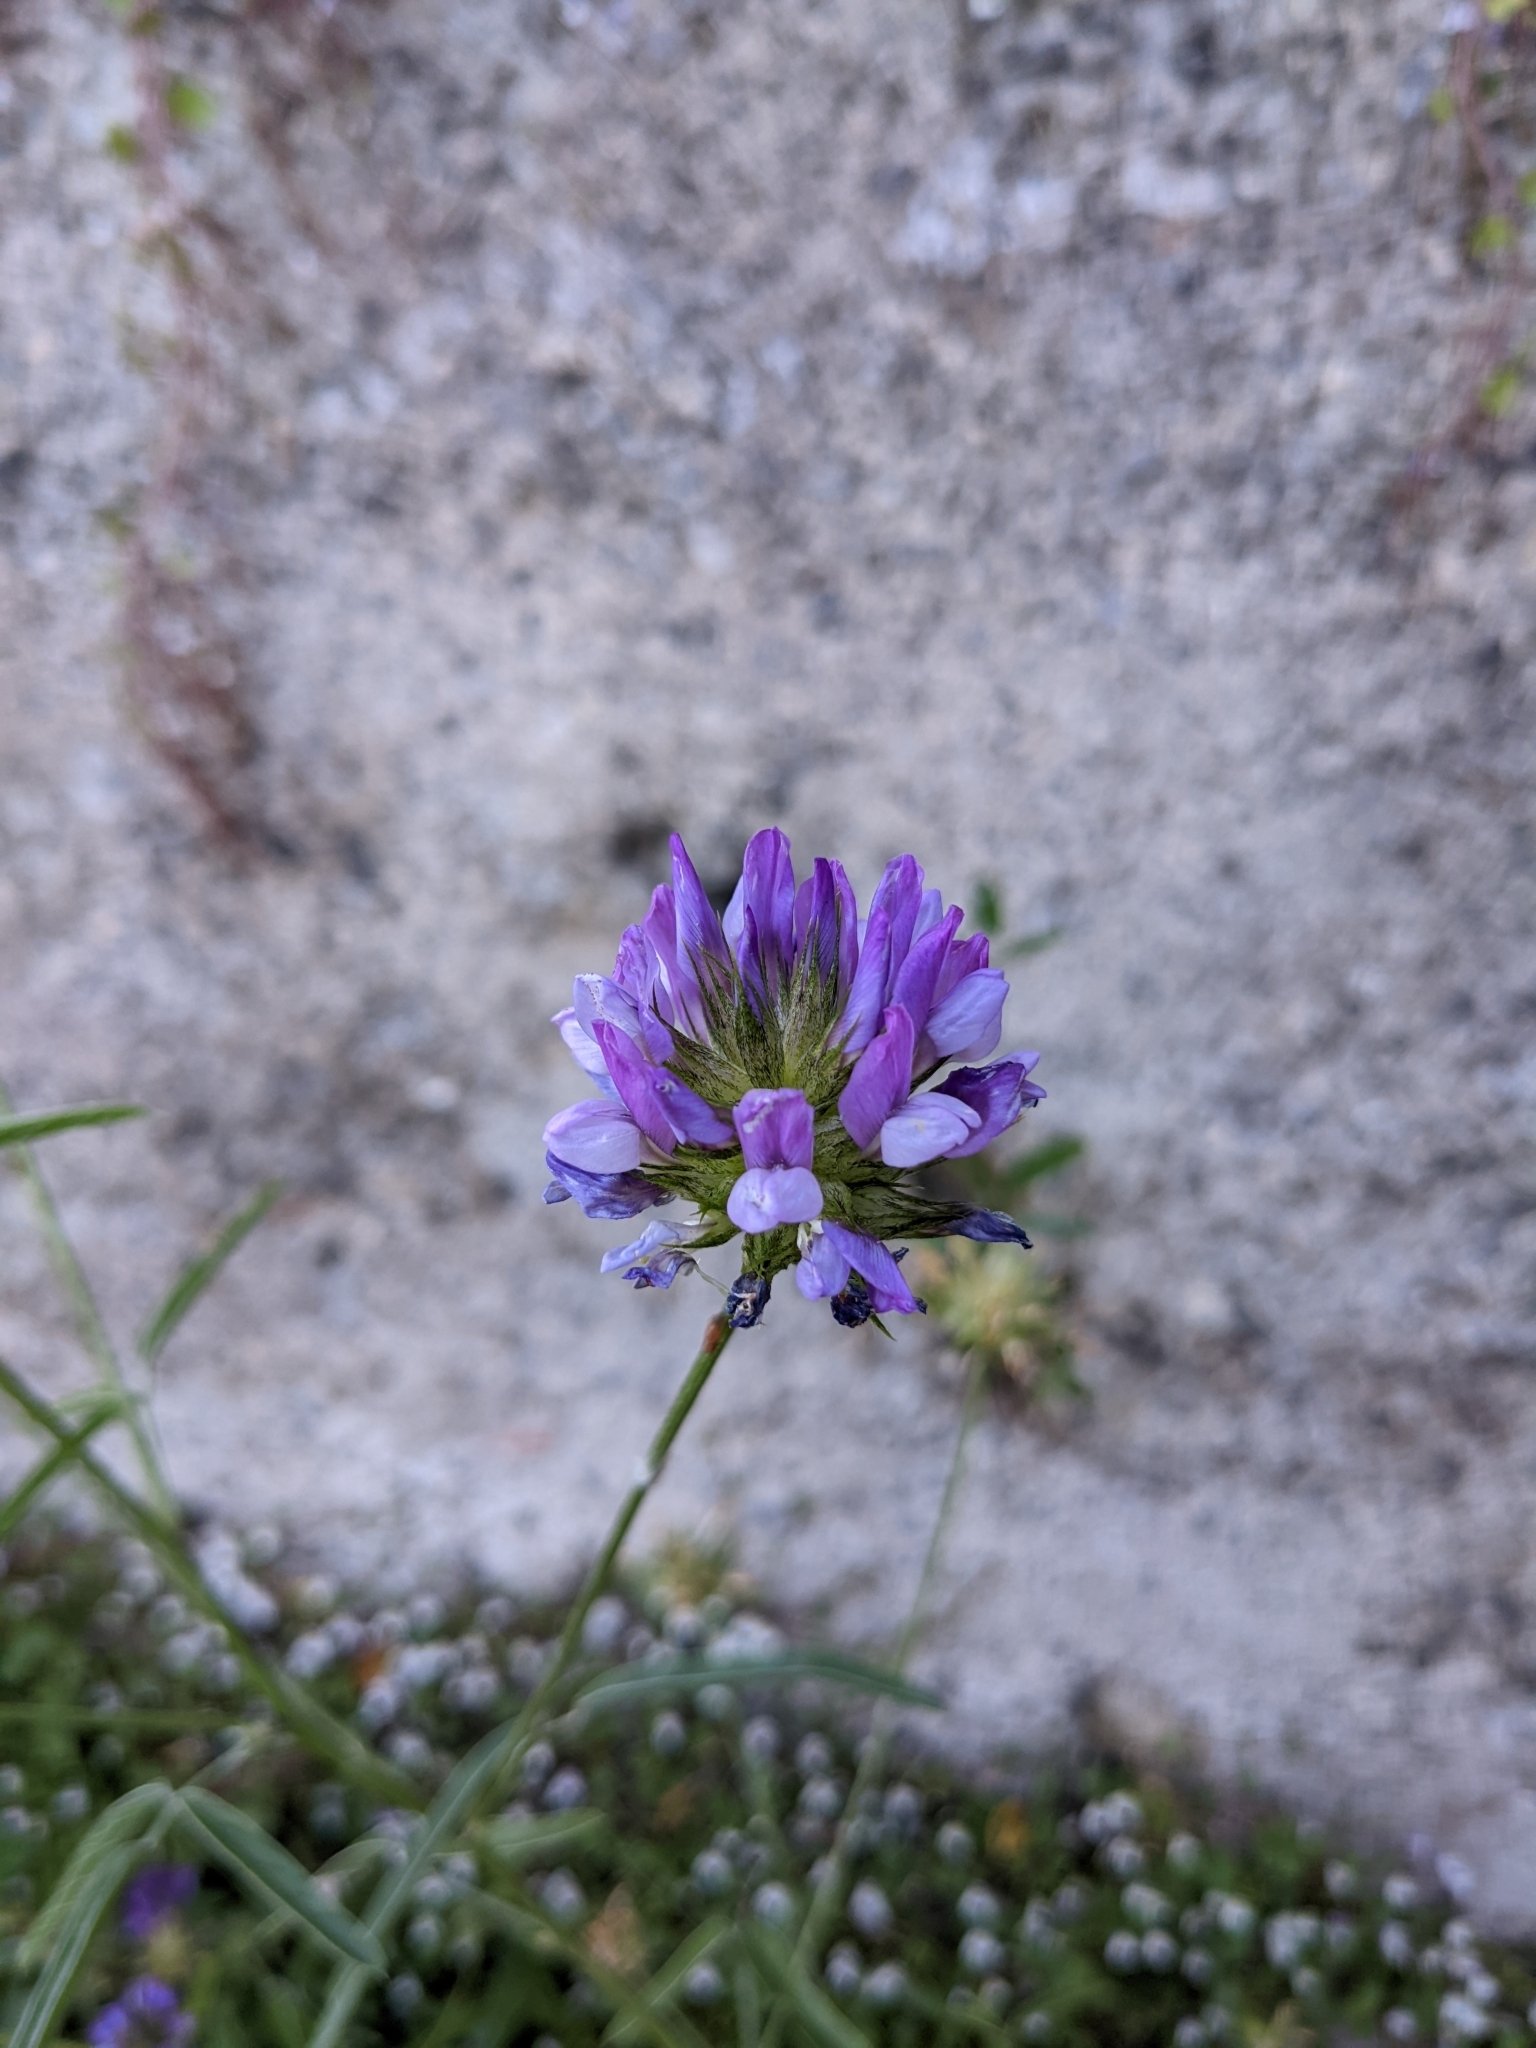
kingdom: Plantae
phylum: Tracheophyta
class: Magnoliopsida
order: Fabales
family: Fabaceae
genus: Bituminaria
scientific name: Bituminaria bituminosa
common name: Arabian pea
